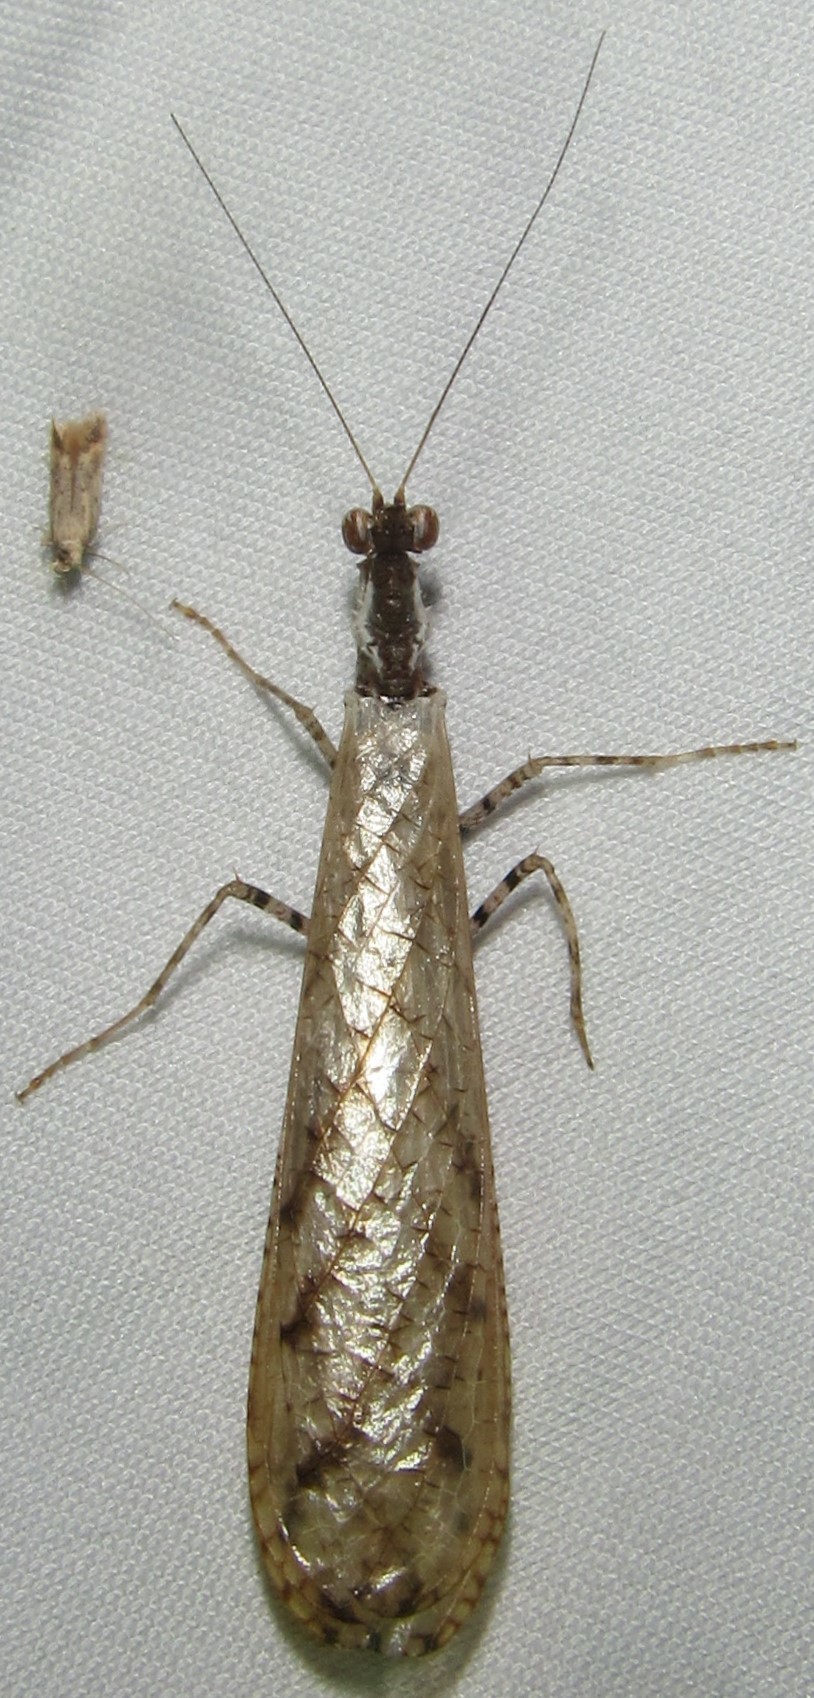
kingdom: Animalia
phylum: Arthropoda
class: Insecta
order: Mantodea
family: Hymenopodidae
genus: Oxypilus
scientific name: Oxypilus capensis
